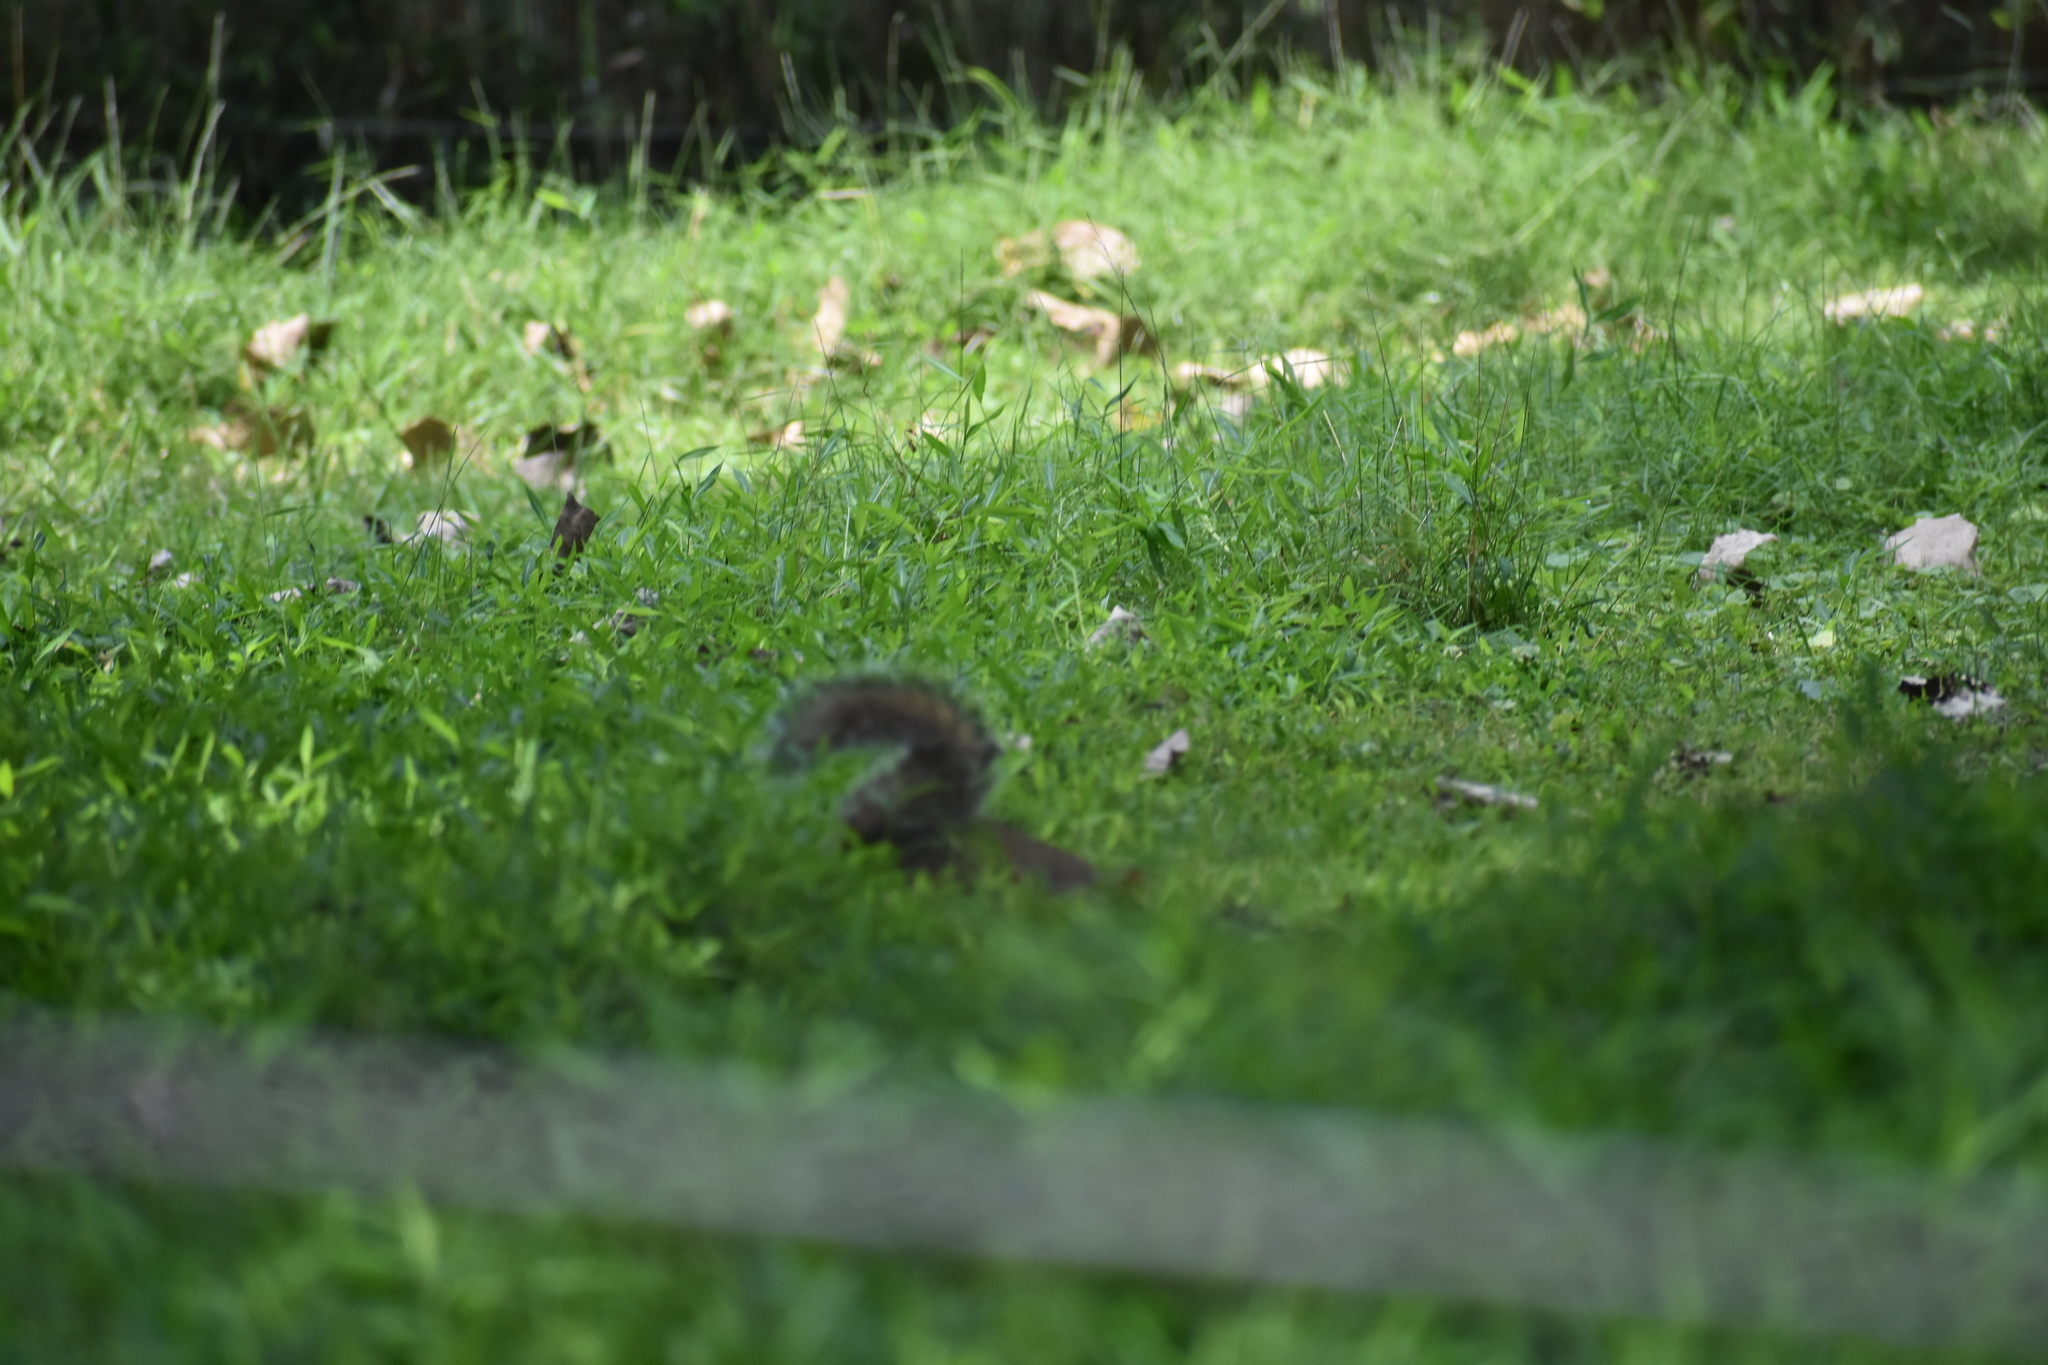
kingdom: Animalia
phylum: Chordata
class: Mammalia
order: Rodentia
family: Sciuridae
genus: Sciurus
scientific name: Sciurus carolinensis
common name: Eastern gray squirrel
